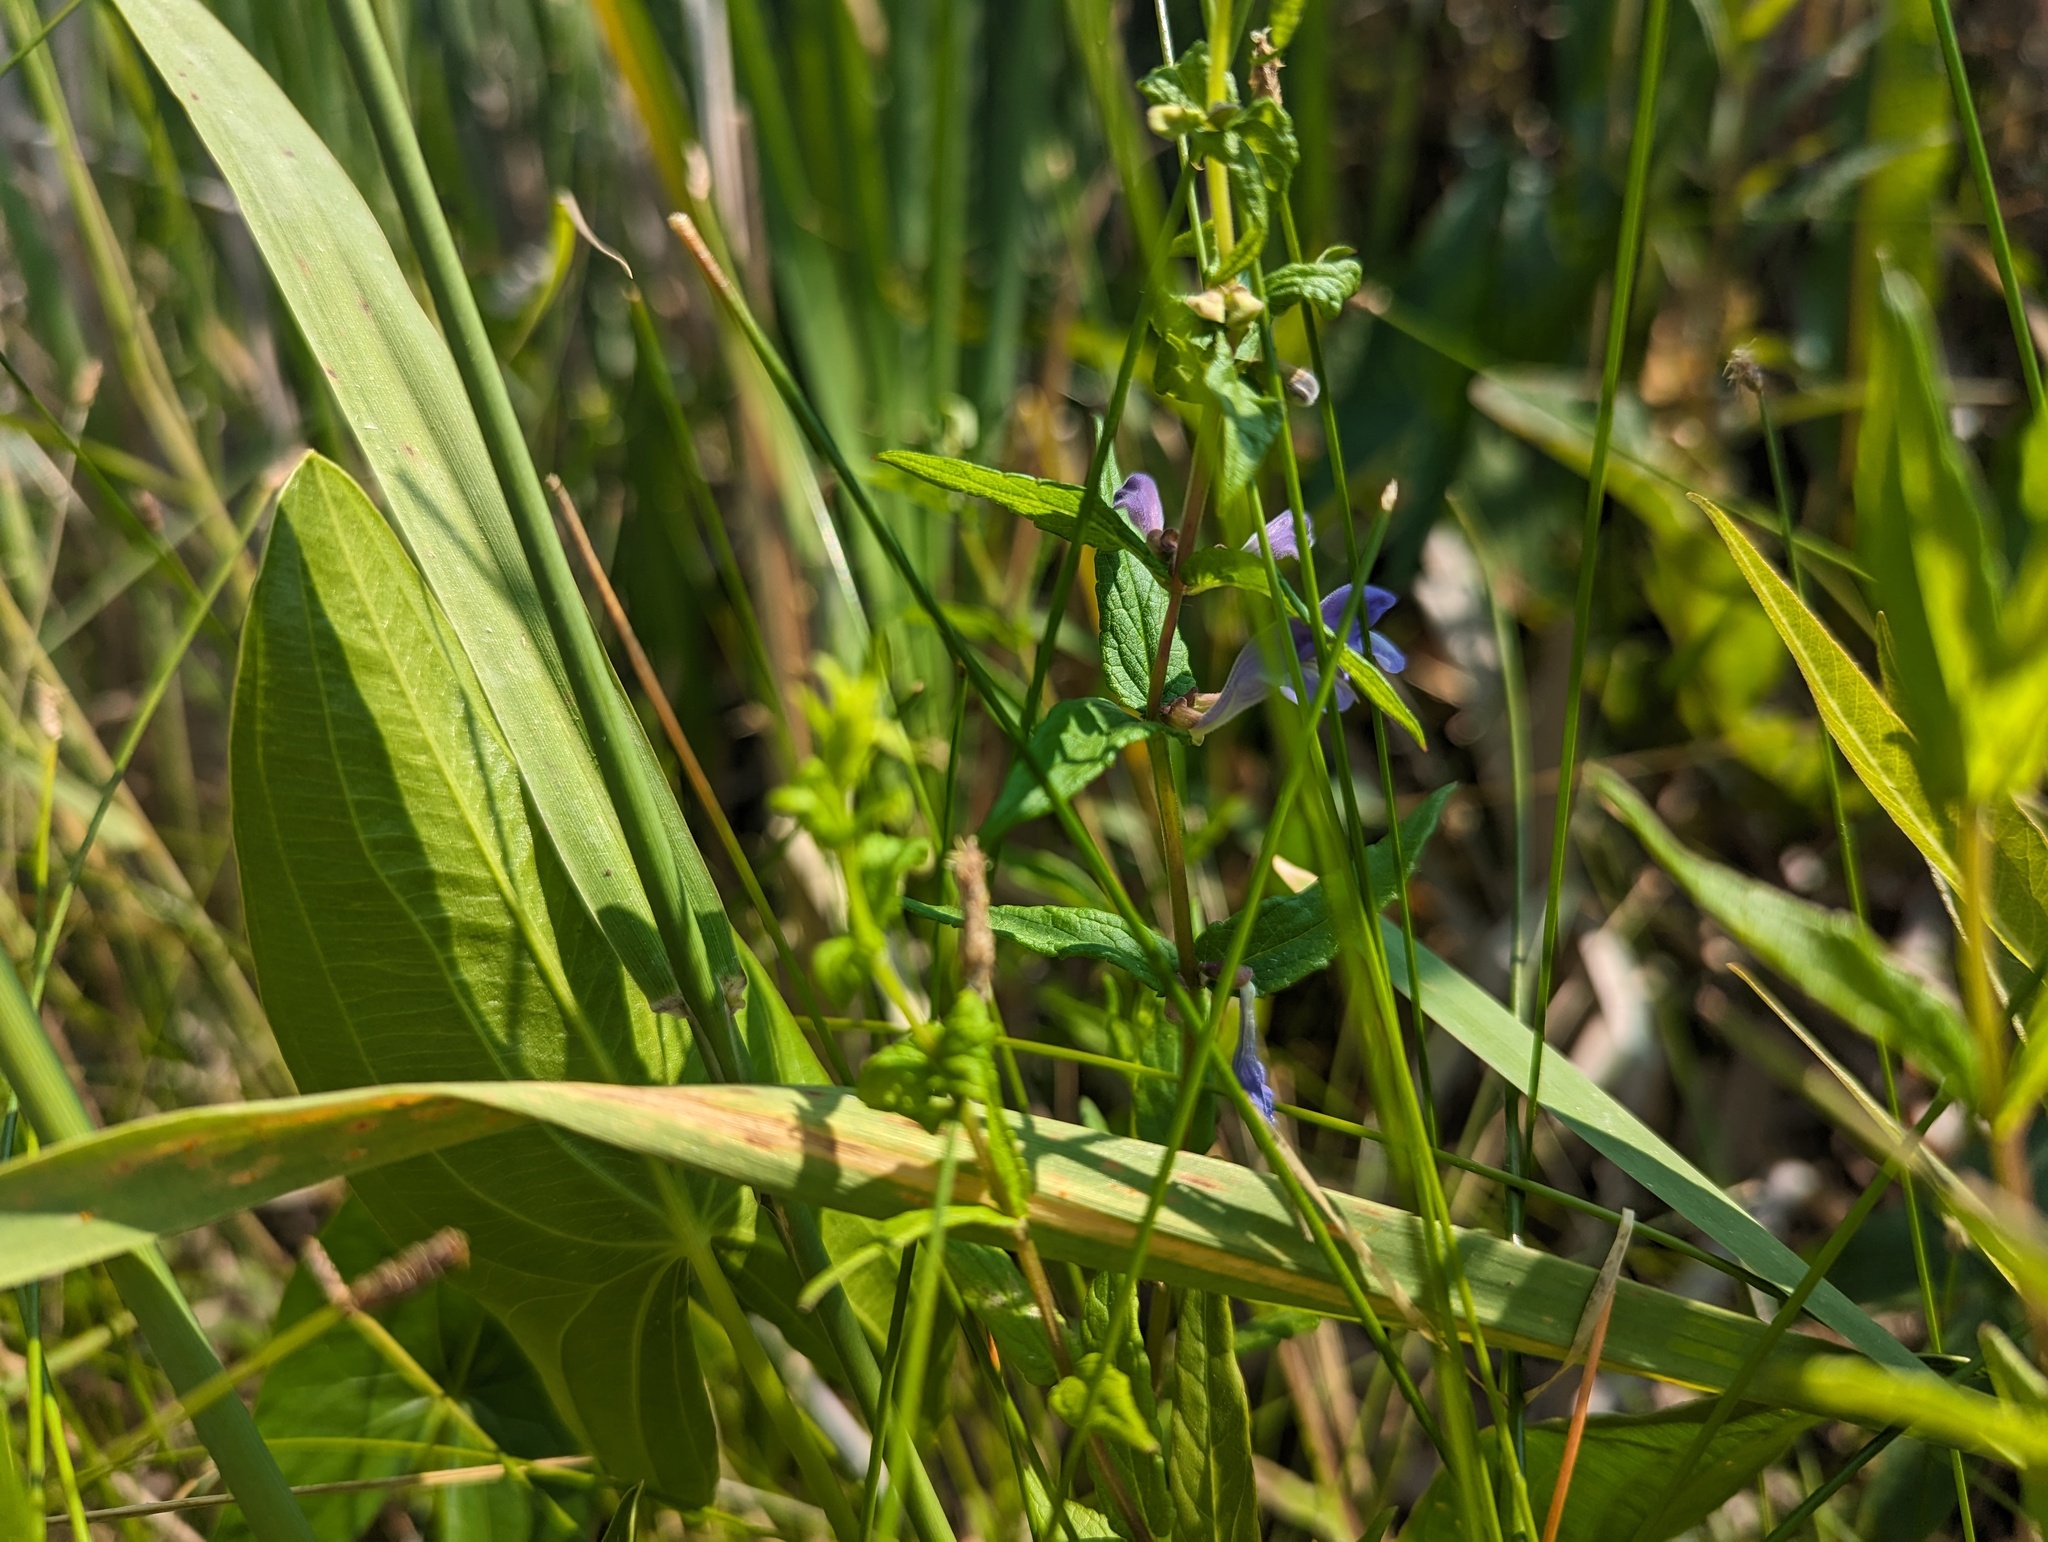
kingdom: Plantae
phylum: Tracheophyta
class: Magnoliopsida
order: Lamiales
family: Lamiaceae
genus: Scutellaria
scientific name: Scutellaria galericulata
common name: Skullcap
